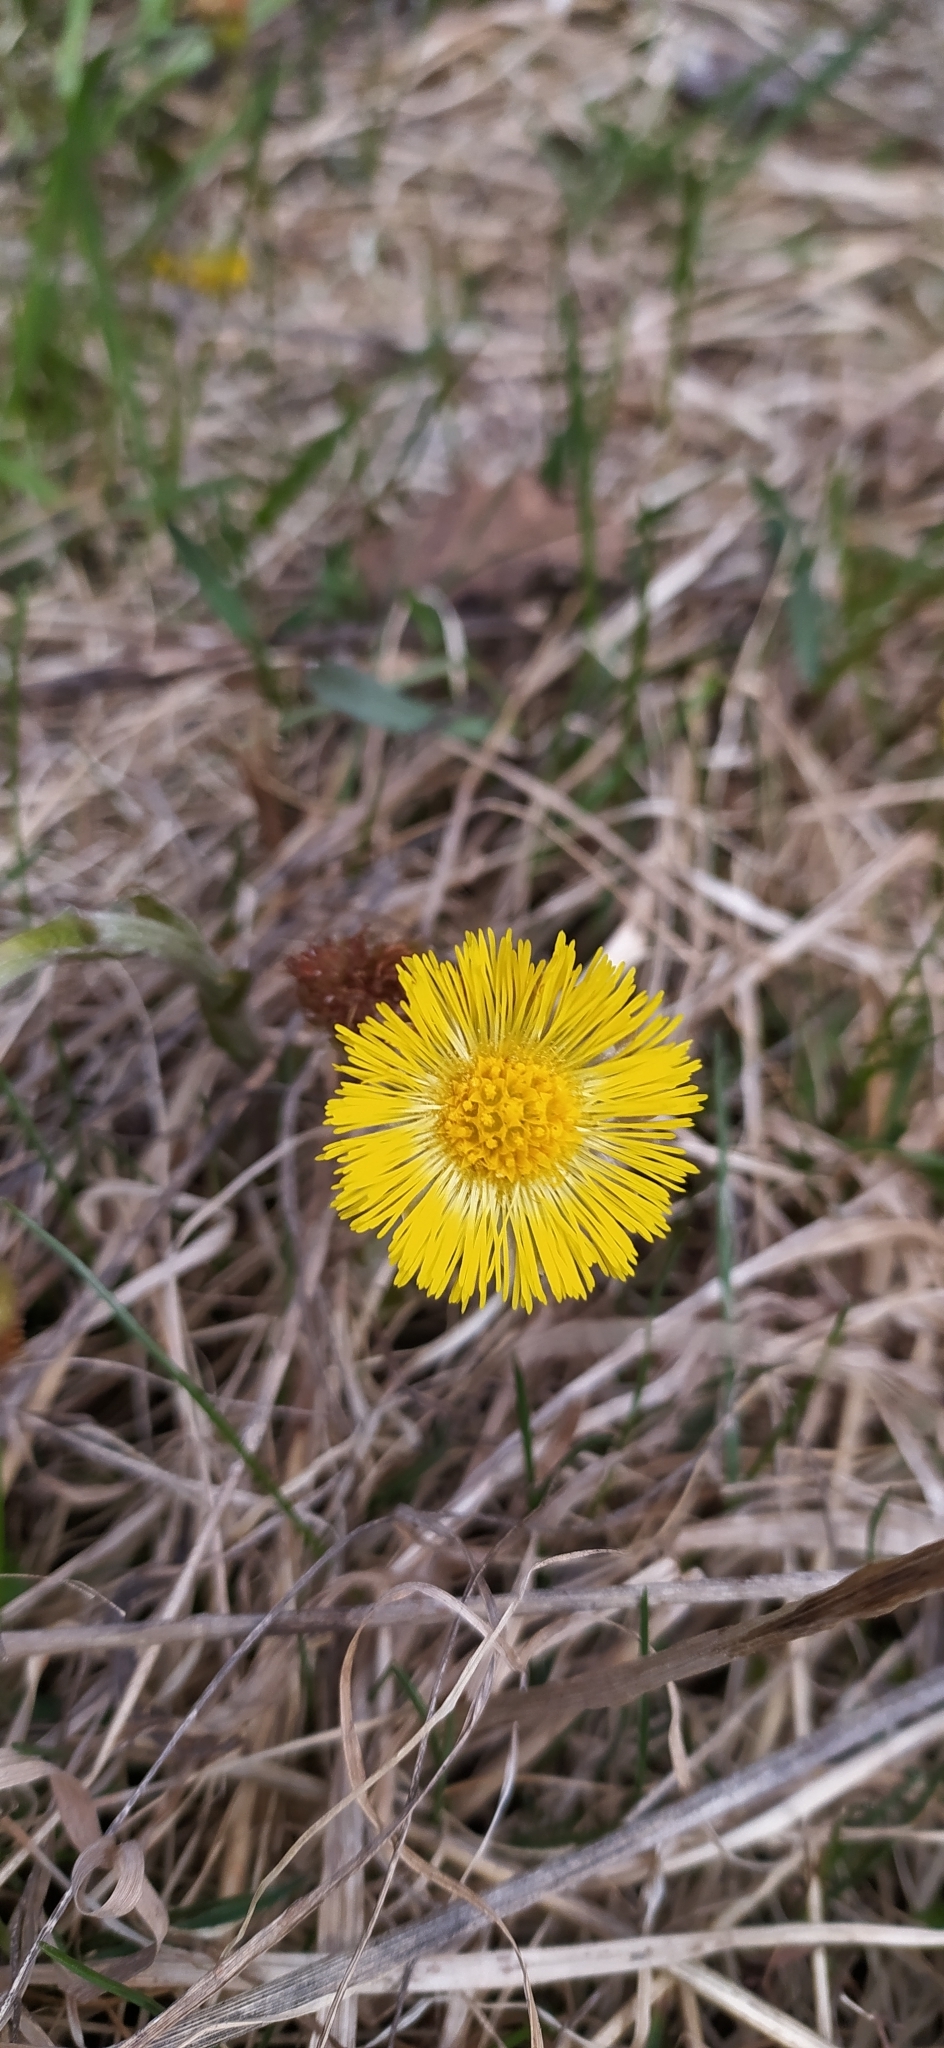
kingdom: Plantae
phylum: Tracheophyta
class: Magnoliopsida
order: Asterales
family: Asteraceae
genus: Tussilago
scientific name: Tussilago farfara
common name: Coltsfoot
